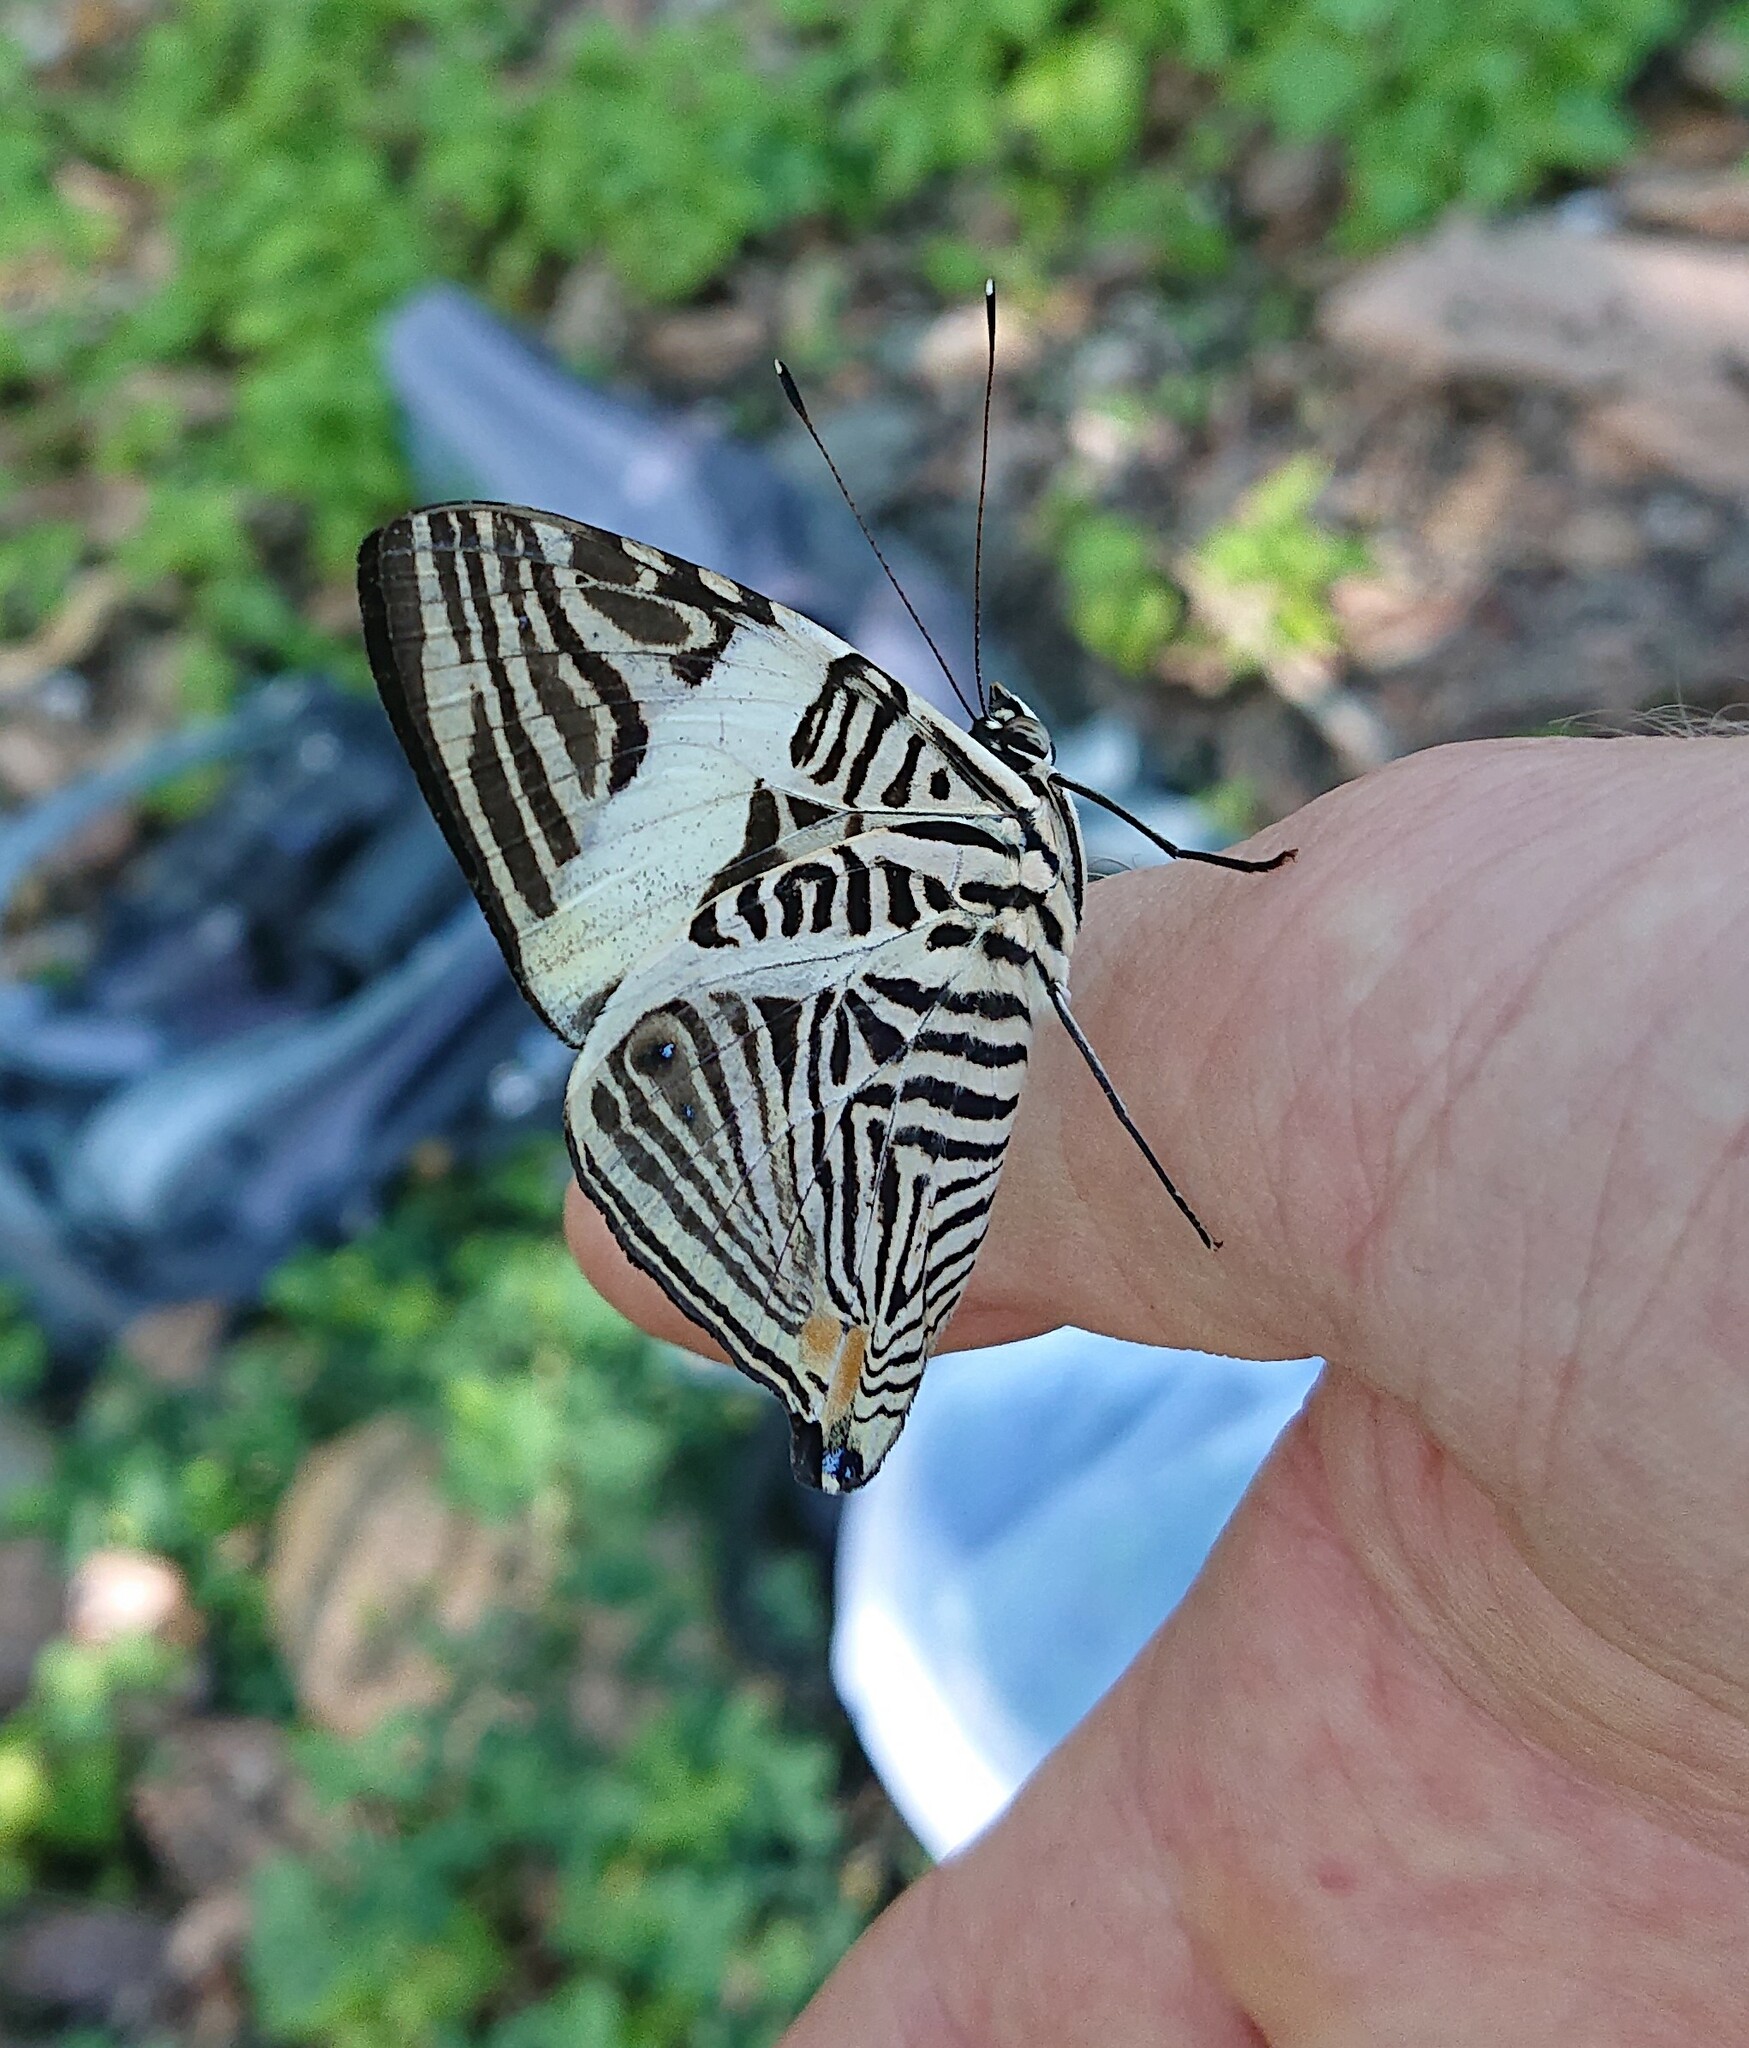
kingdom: Animalia
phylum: Arthropoda
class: Insecta
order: Lepidoptera
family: Nymphalidae
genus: Colobura
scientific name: Colobura dirce
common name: Dirce beauty
